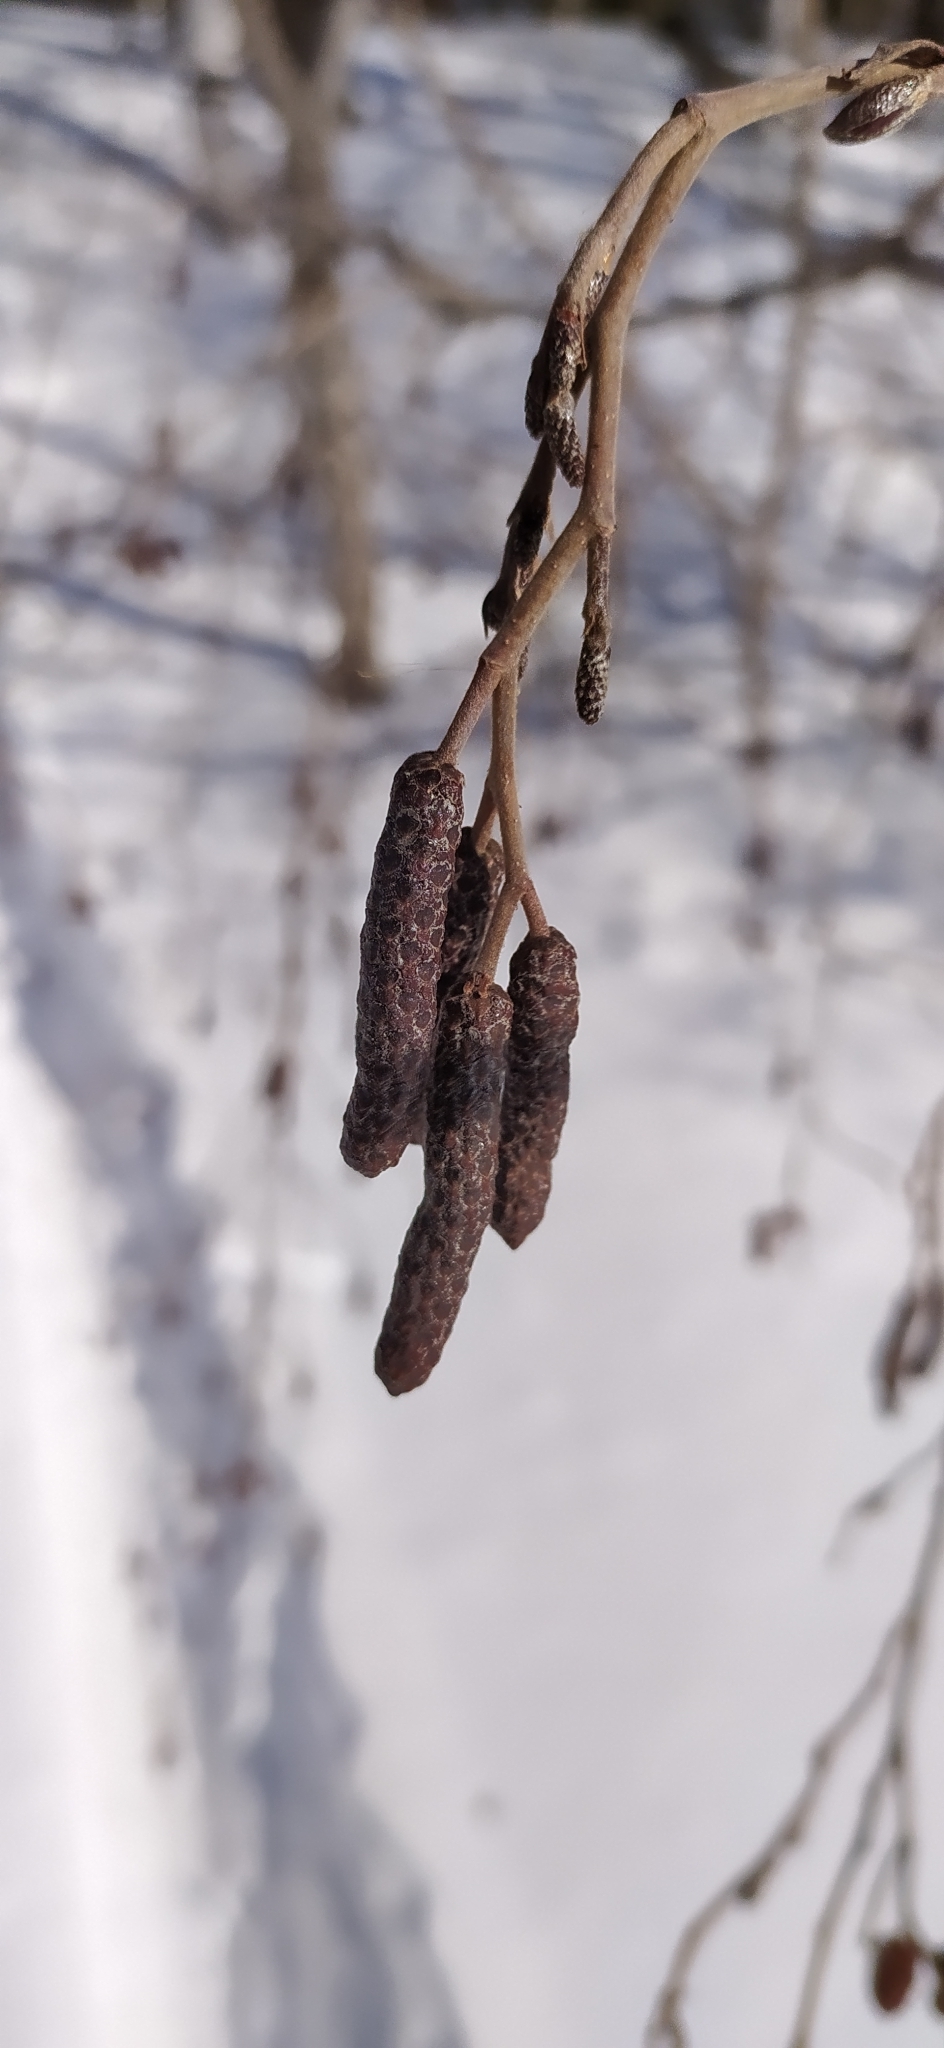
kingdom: Plantae
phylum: Tracheophyta
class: Magnoliopsida
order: Fagales
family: Betulaceae
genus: Alnus
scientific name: Alnus incana
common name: Grey alder
